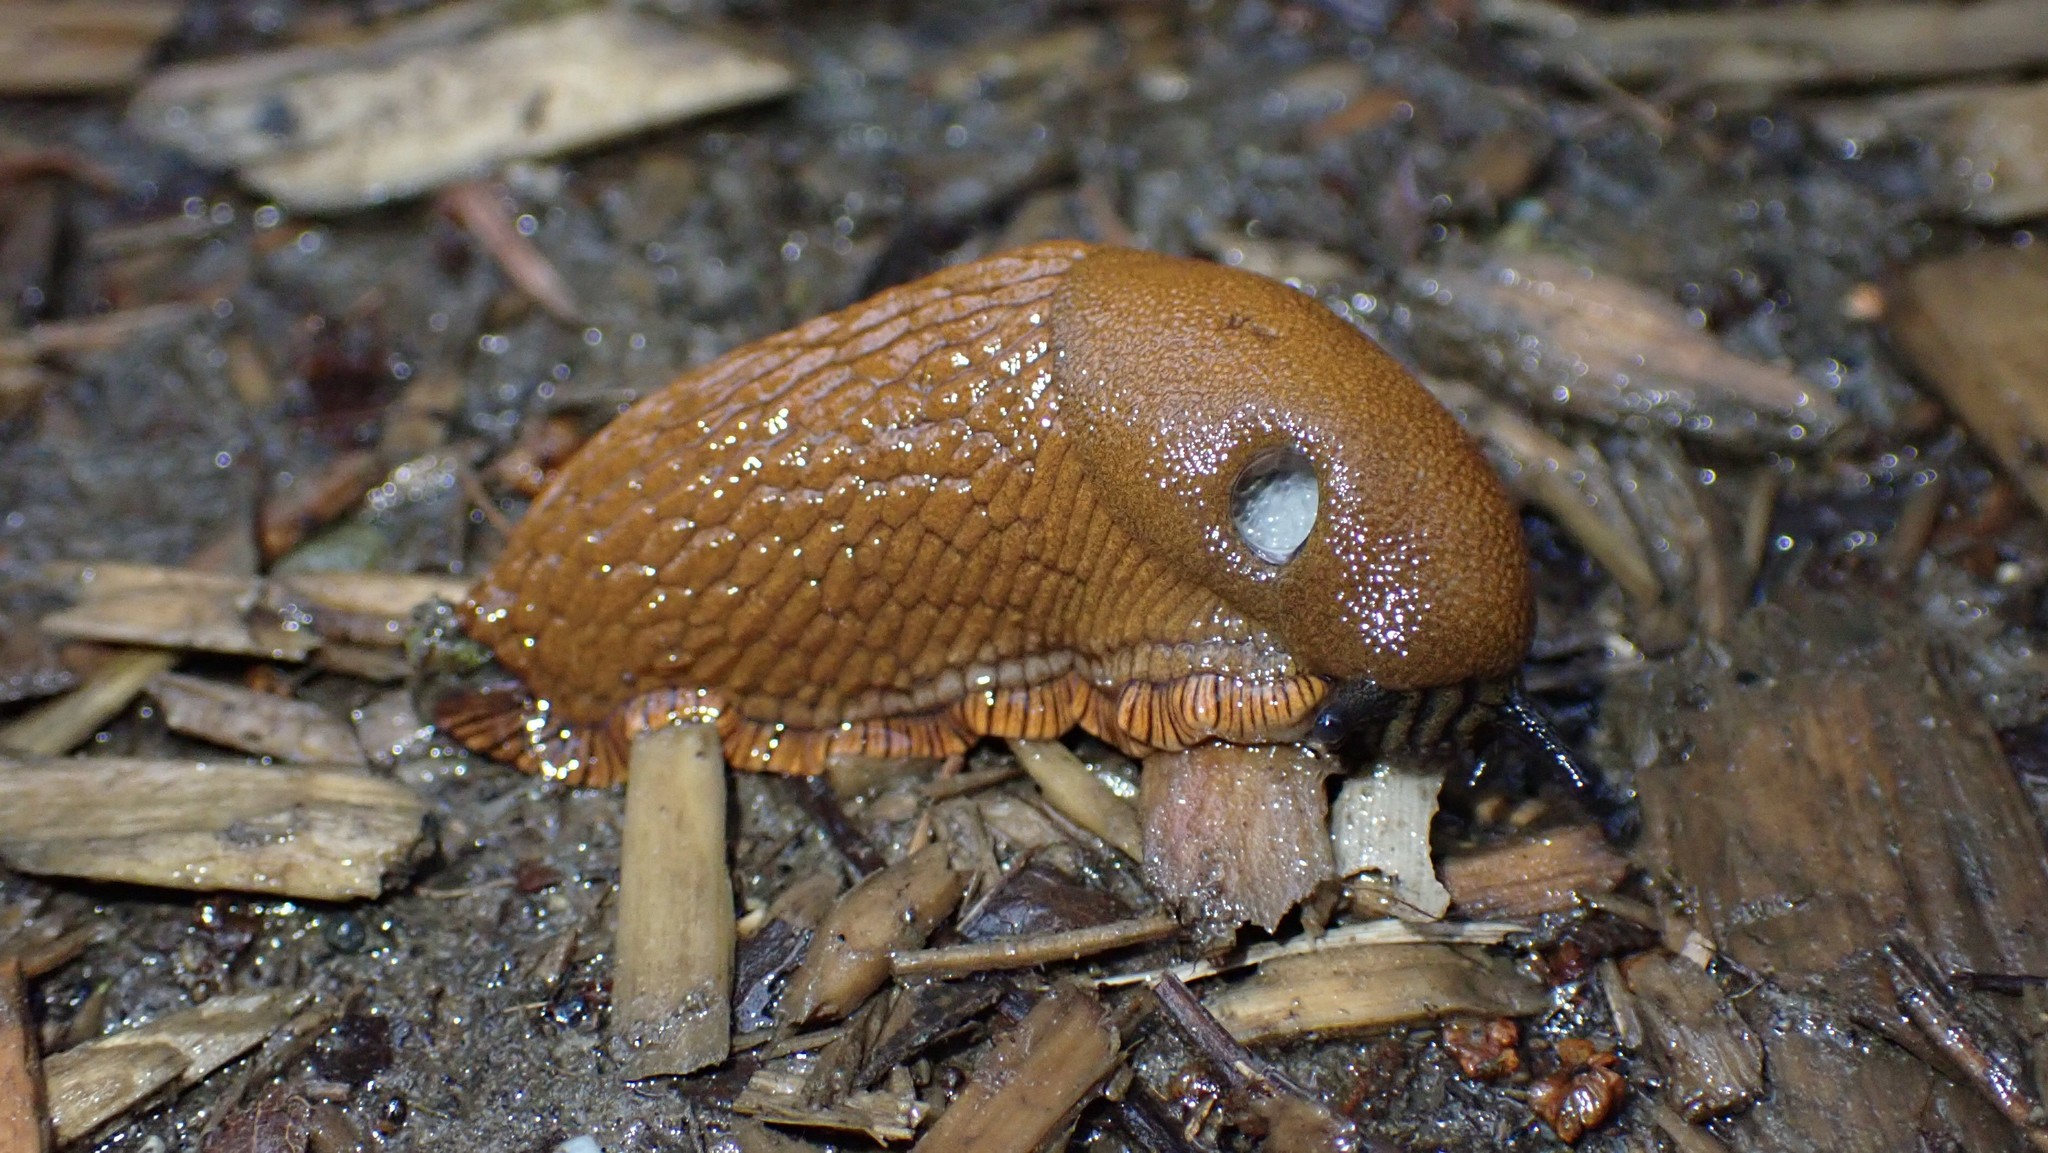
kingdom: Animalia
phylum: Mollusca
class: Gastropoda
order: Stylommatophora
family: Arionidae
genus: Arion
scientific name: Arion
